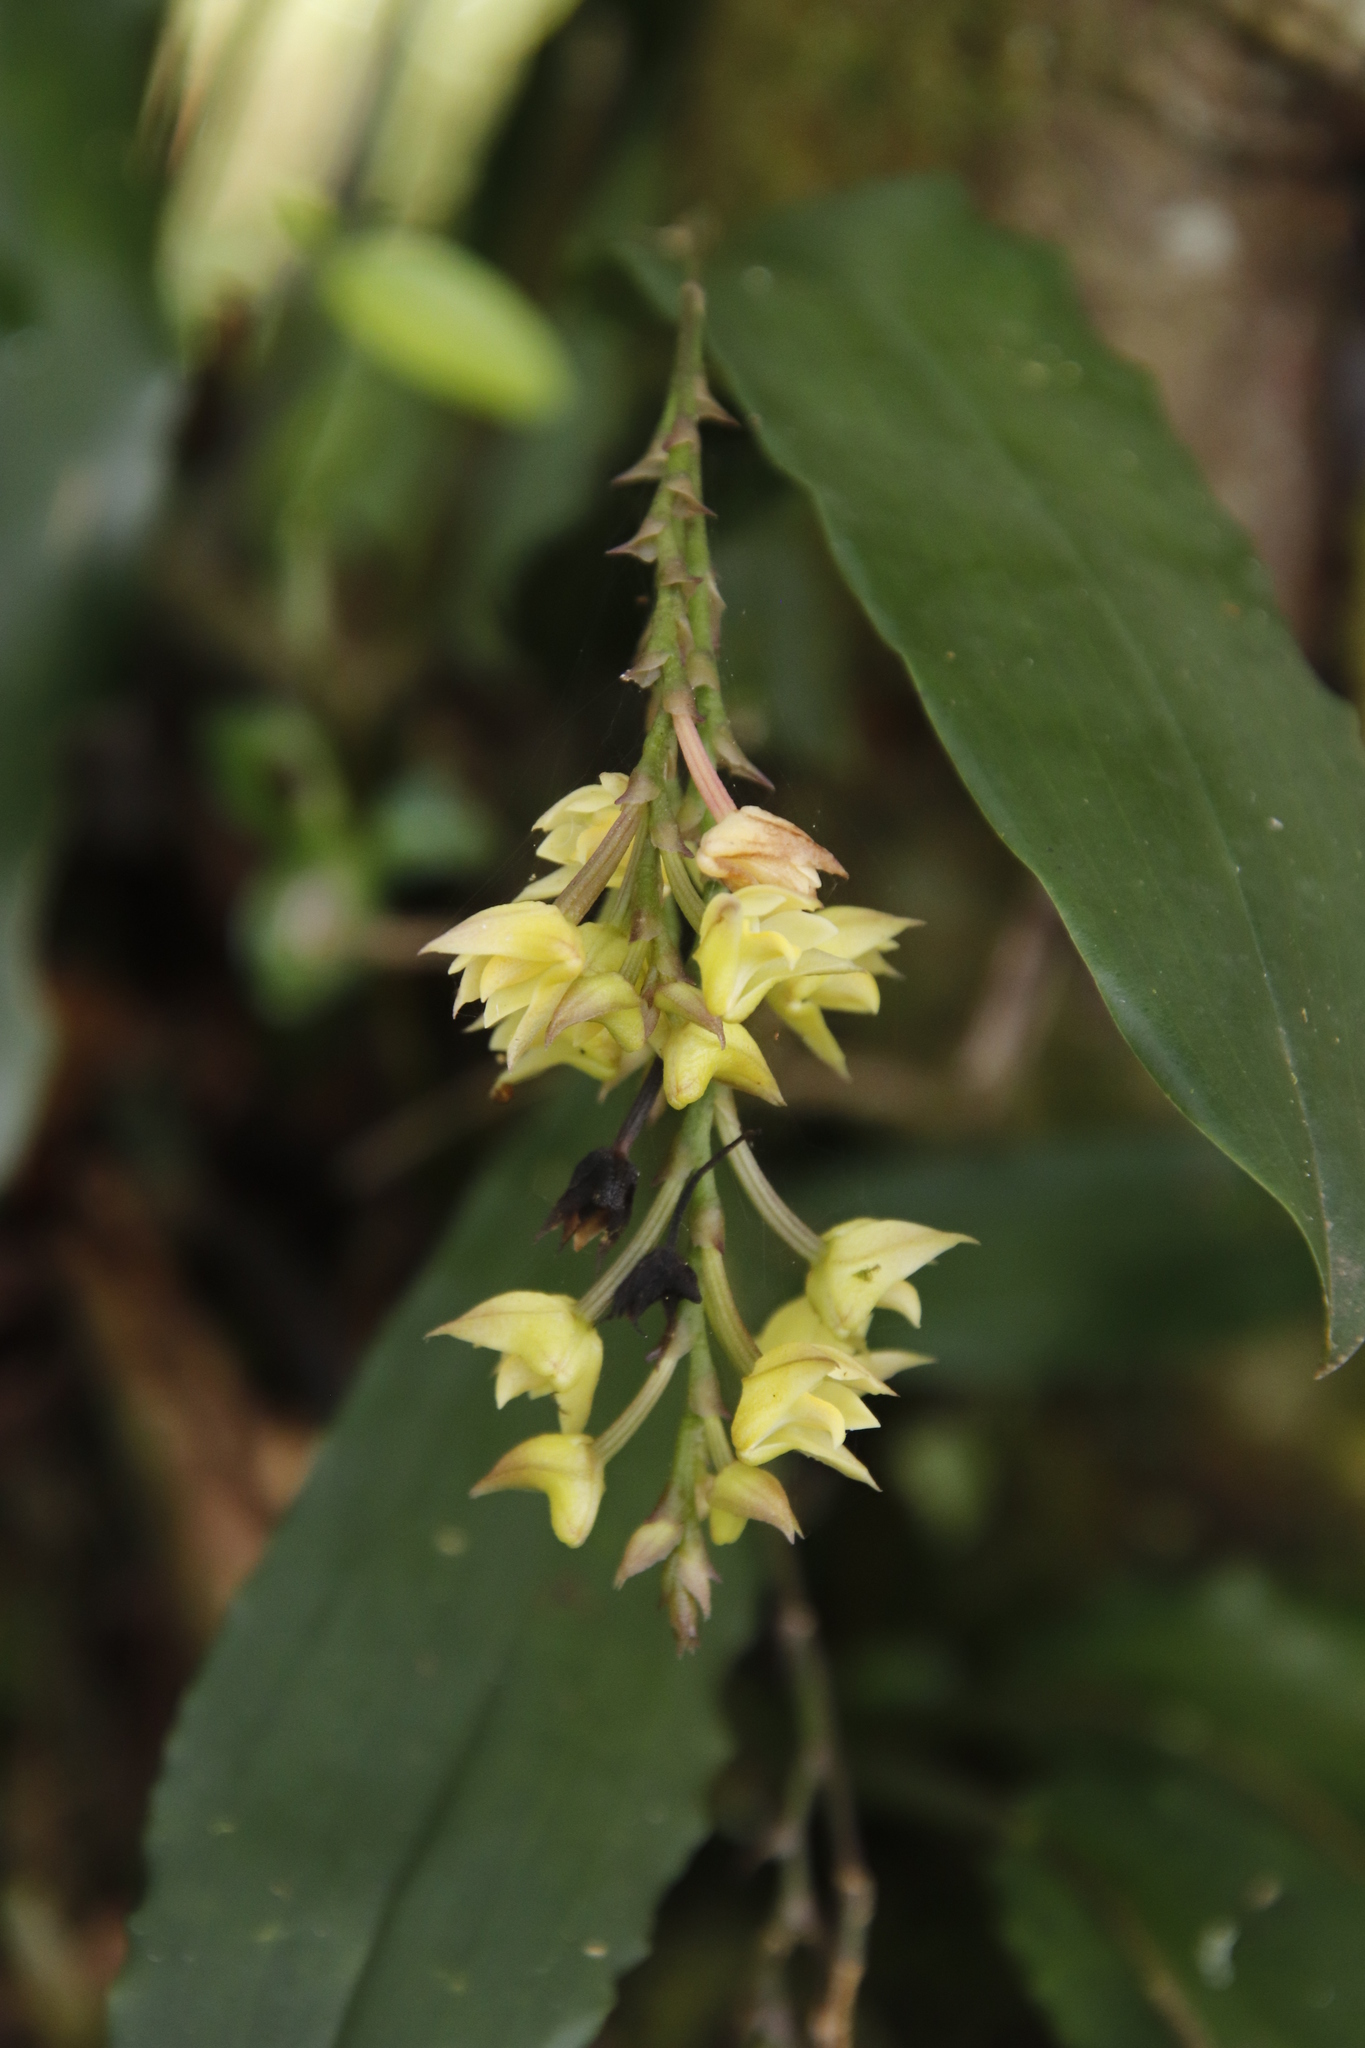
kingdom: Plantae
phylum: Tracheophyta
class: Liliopsida
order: Asparagales
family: Orchidaceae
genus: Polystachya
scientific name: Polystachya cultriformis
